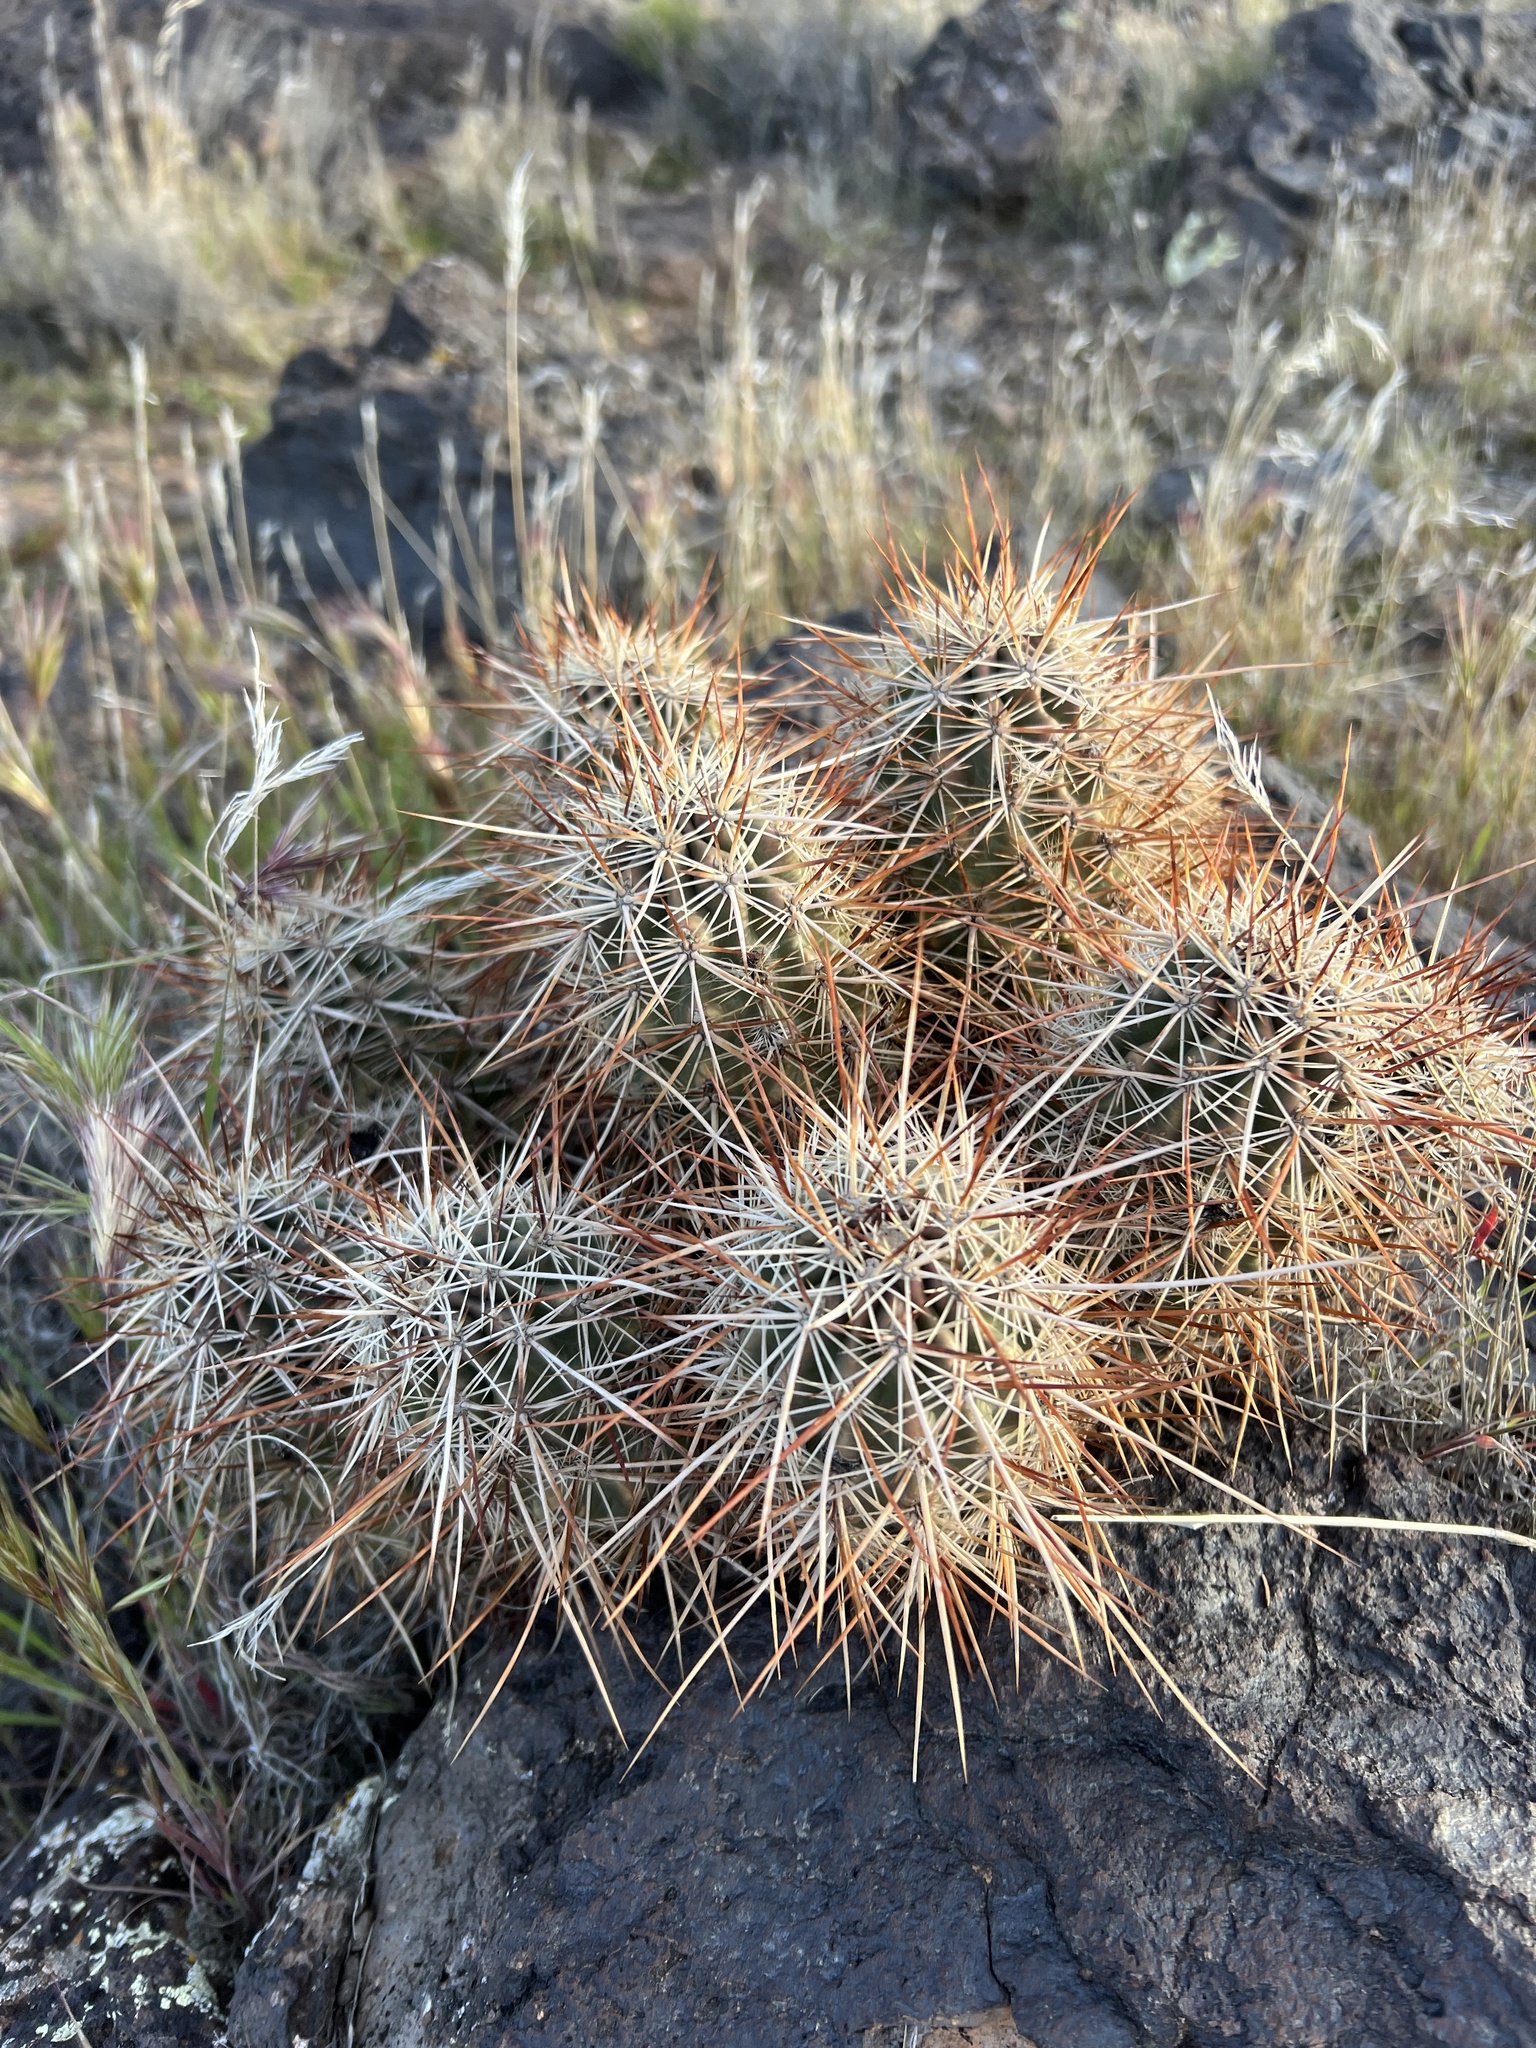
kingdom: Plantae
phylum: Tracheophyta
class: Magnoliopsida
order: Caryophyllales
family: Cactaceae
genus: Echinocereus
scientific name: Echinocereus relictus
